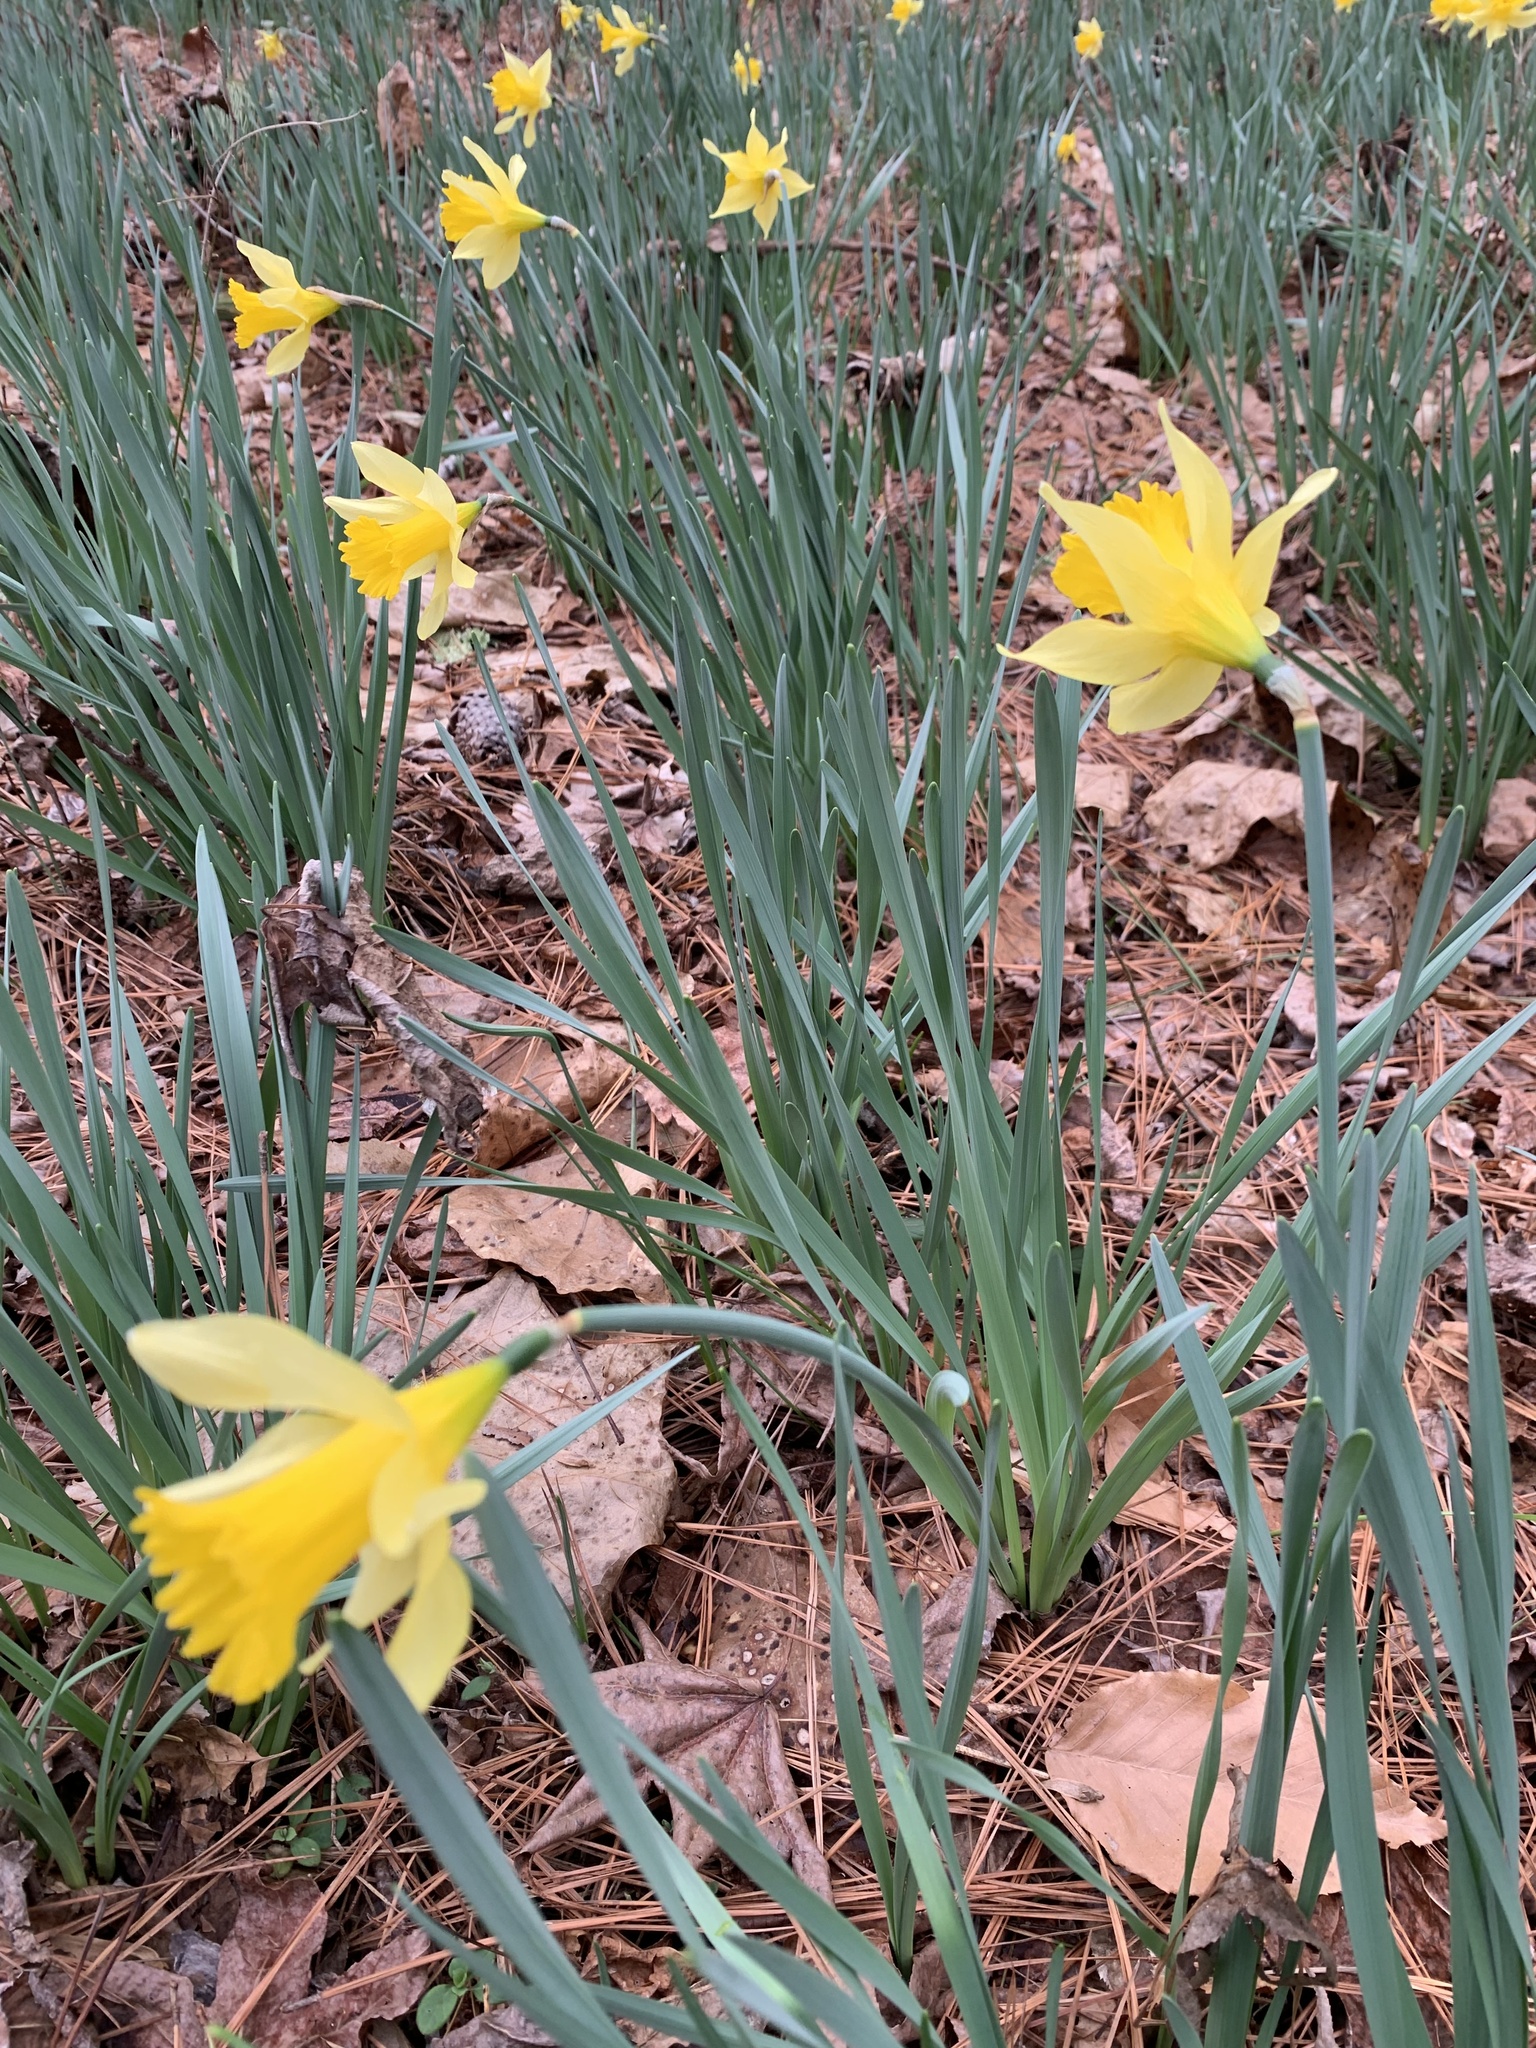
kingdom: Plantae
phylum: Tracheophyta
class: Liliopsida
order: Asparagales
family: Amaryllidaceae
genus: Narcissus
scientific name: Narcissus pseudonarcissus
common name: Daffodil
